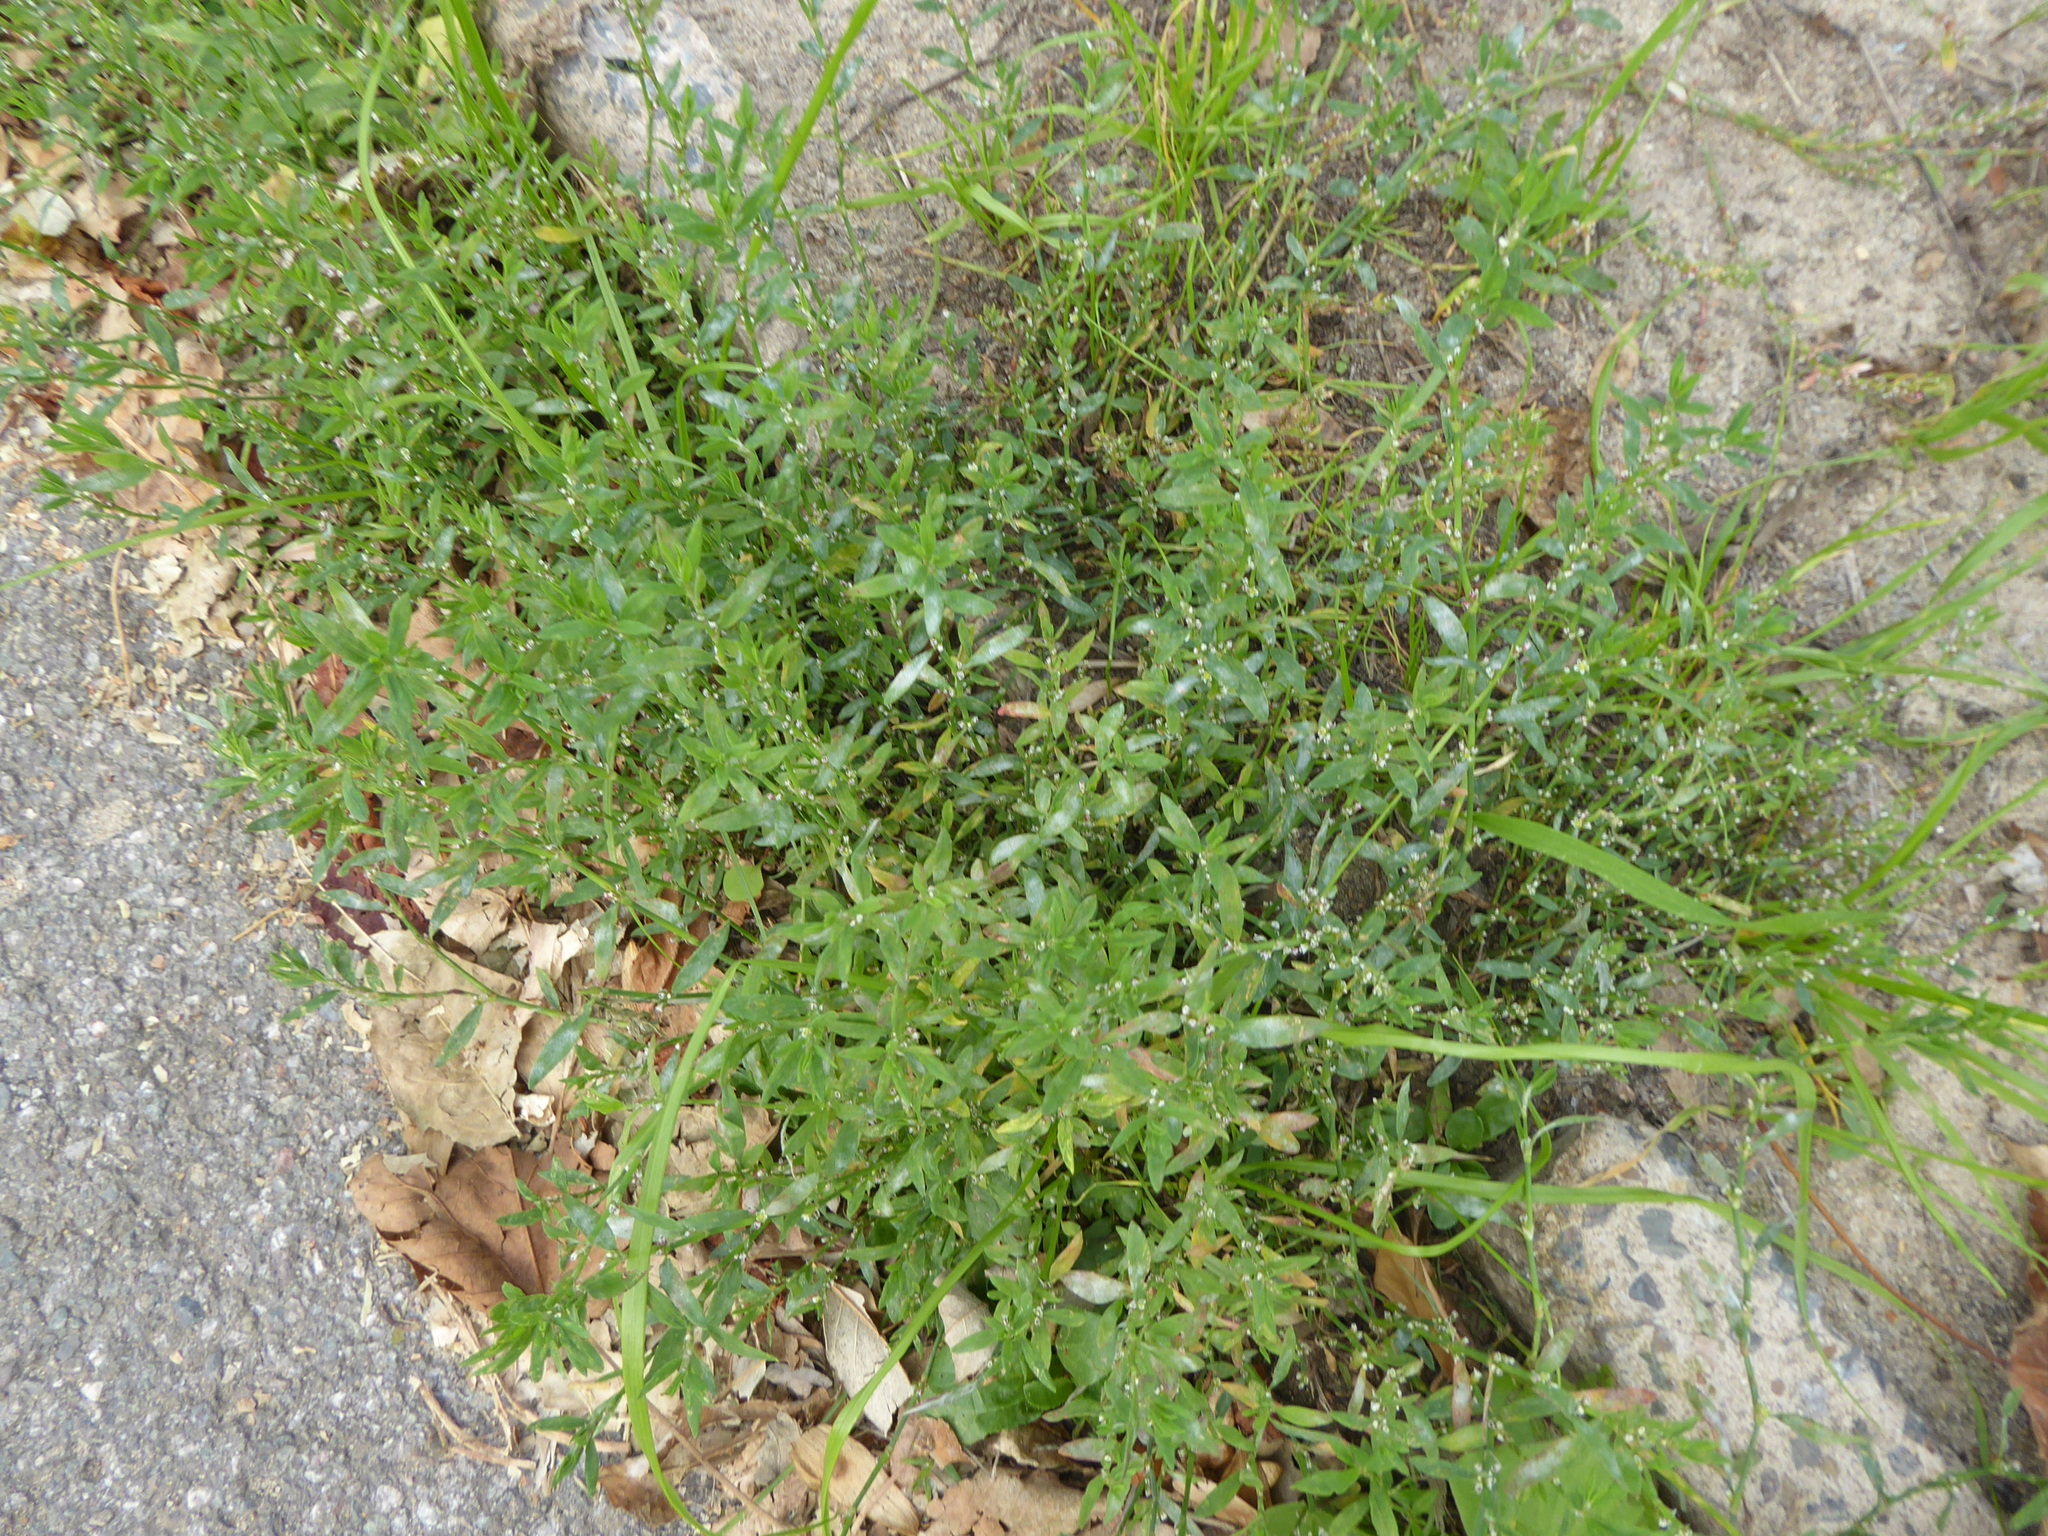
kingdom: Plantae
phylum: Tracheophyta
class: Magnoliopsida
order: Caryophyllales
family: Polygonaceae
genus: Polygonum
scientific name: Polygonum
